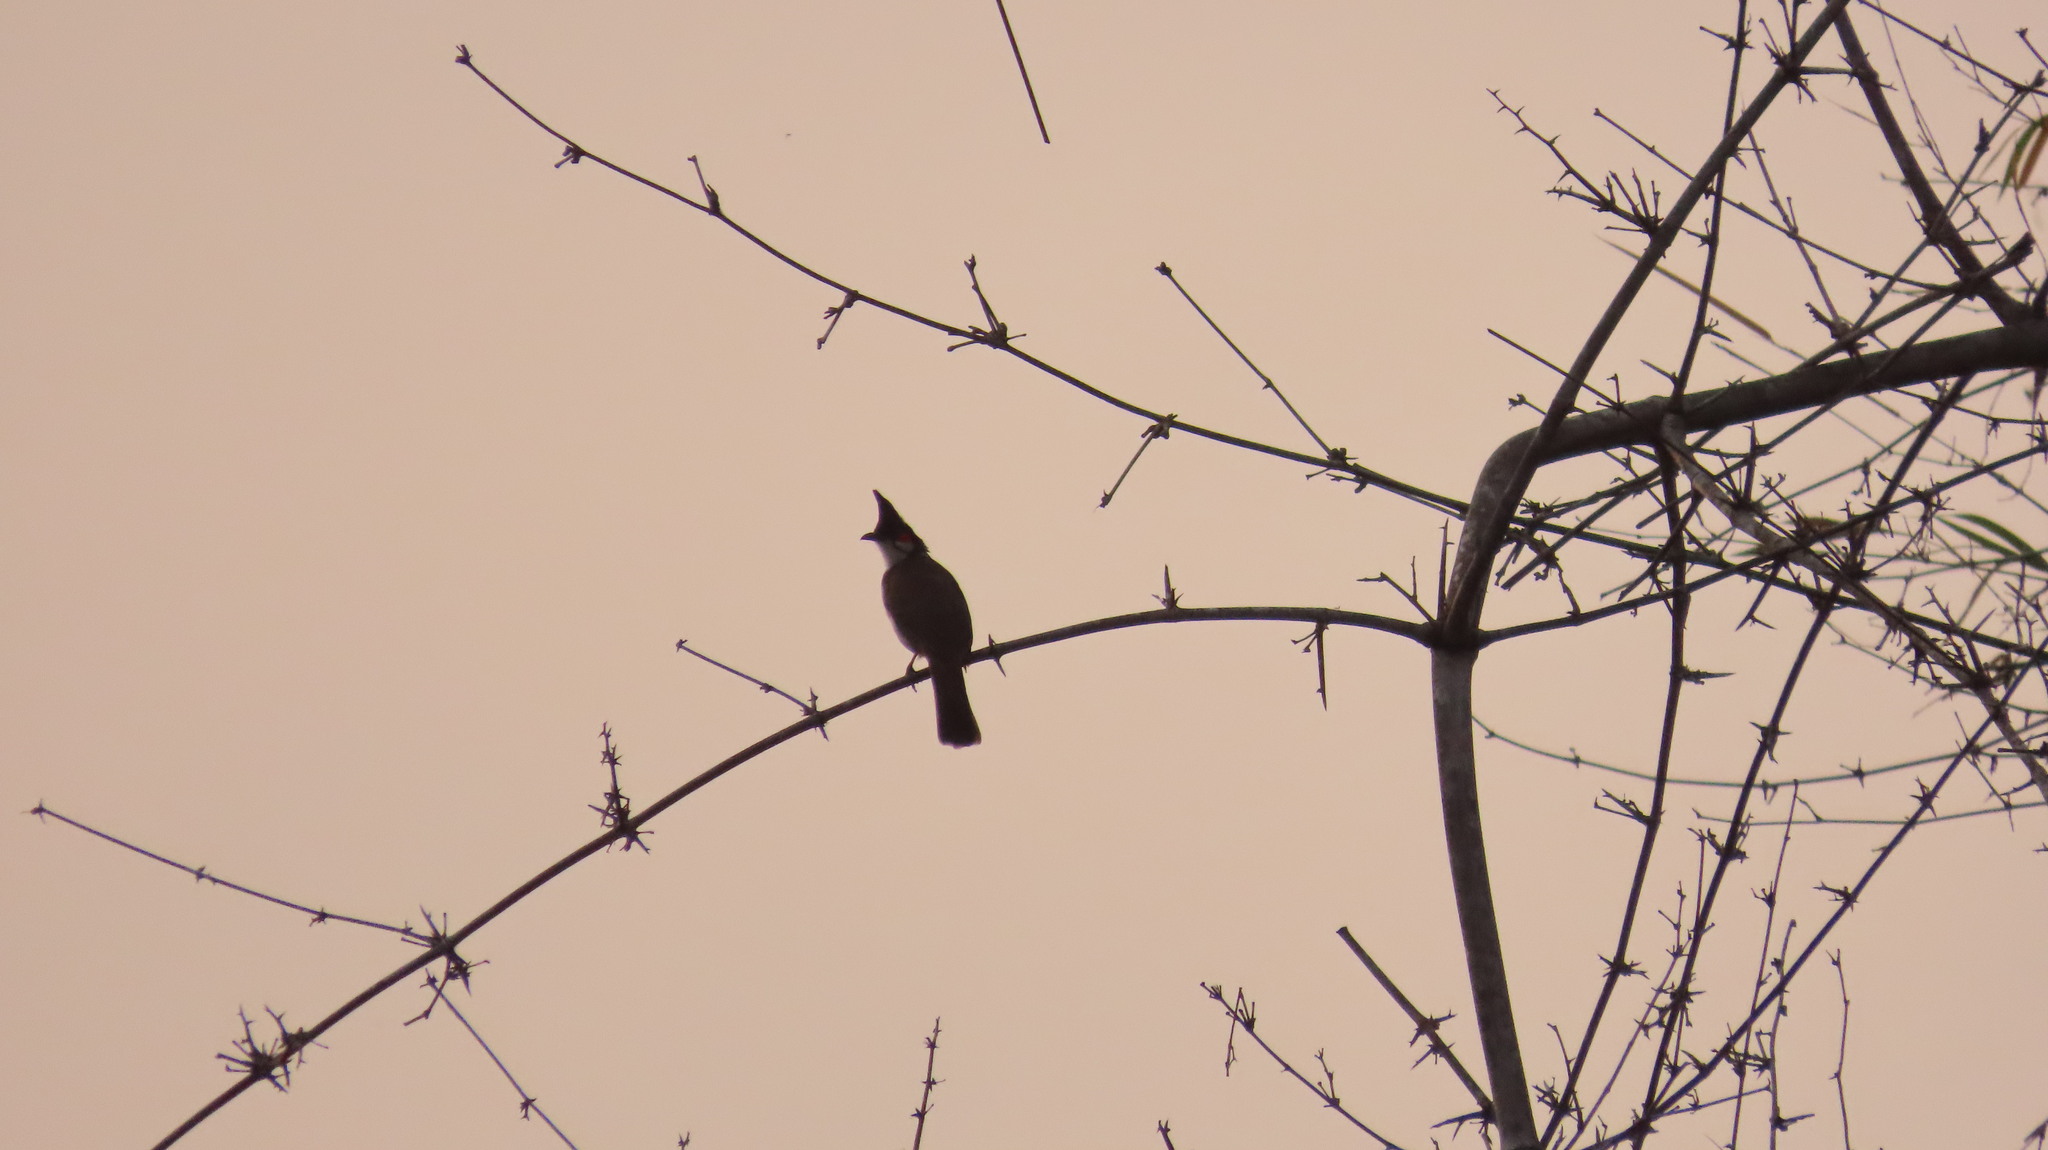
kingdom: Animalia
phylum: Chordata
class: Aves
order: Passeriformes
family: Pycnonotidae
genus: Pycnonotus
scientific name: Pycnonotus jocosus
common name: Red-whiskered bulbul
